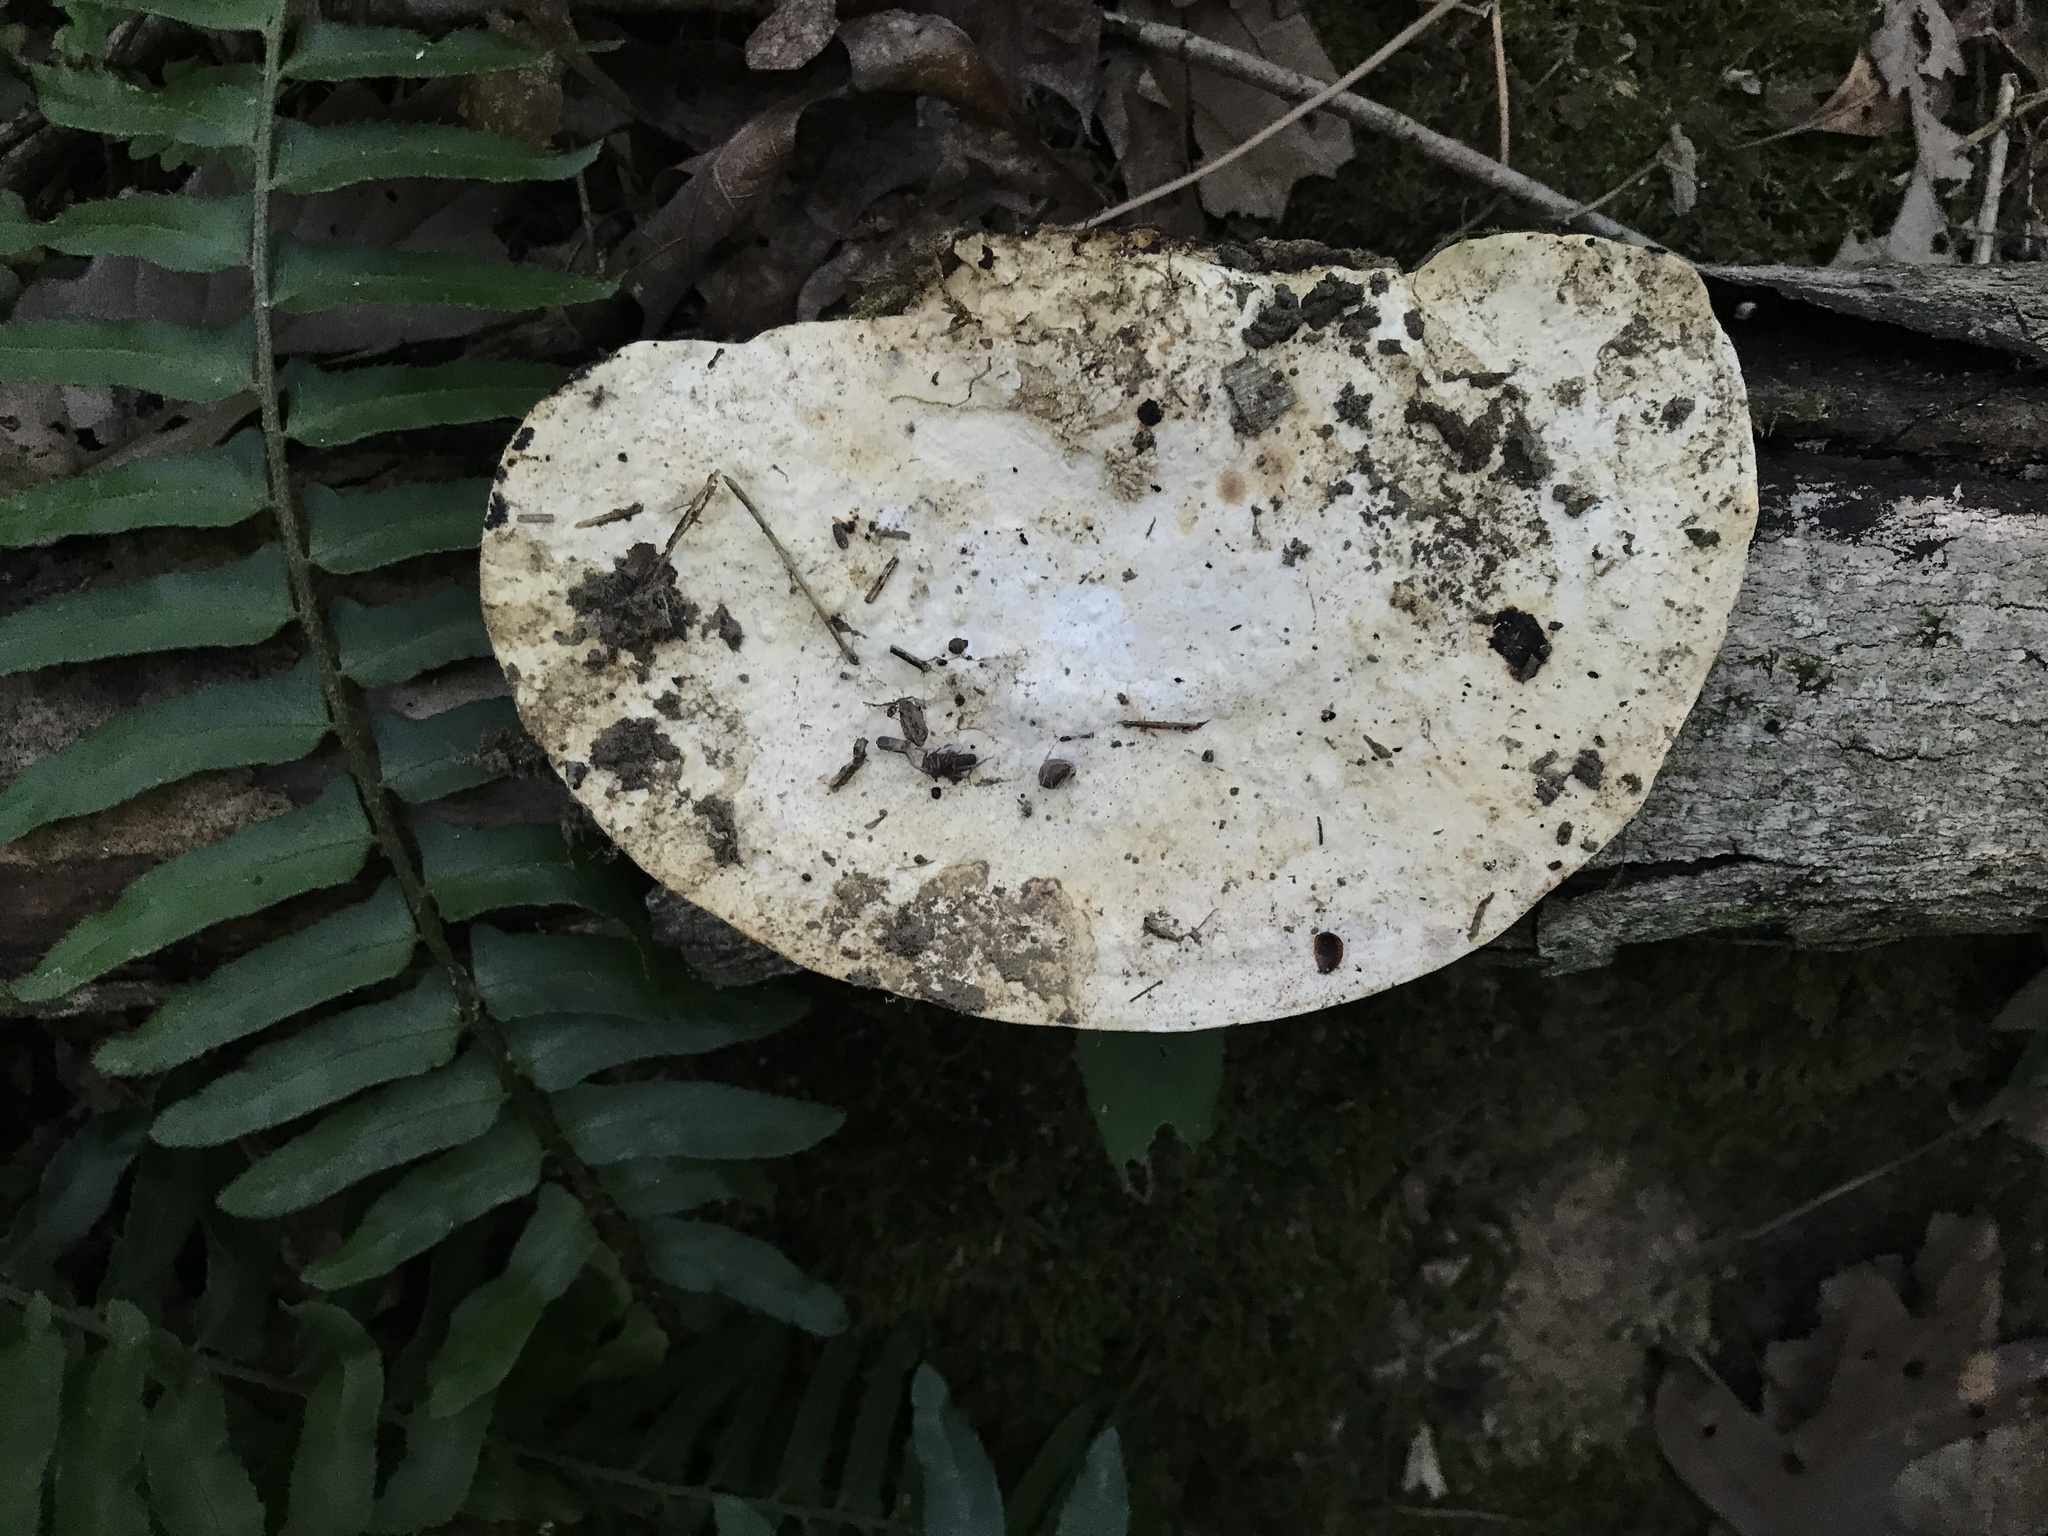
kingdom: Fungi
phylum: Basidiomycota
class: Agaricomycetes
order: Polyporales
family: Polyporaceae
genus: Trametes
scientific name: Trametes
